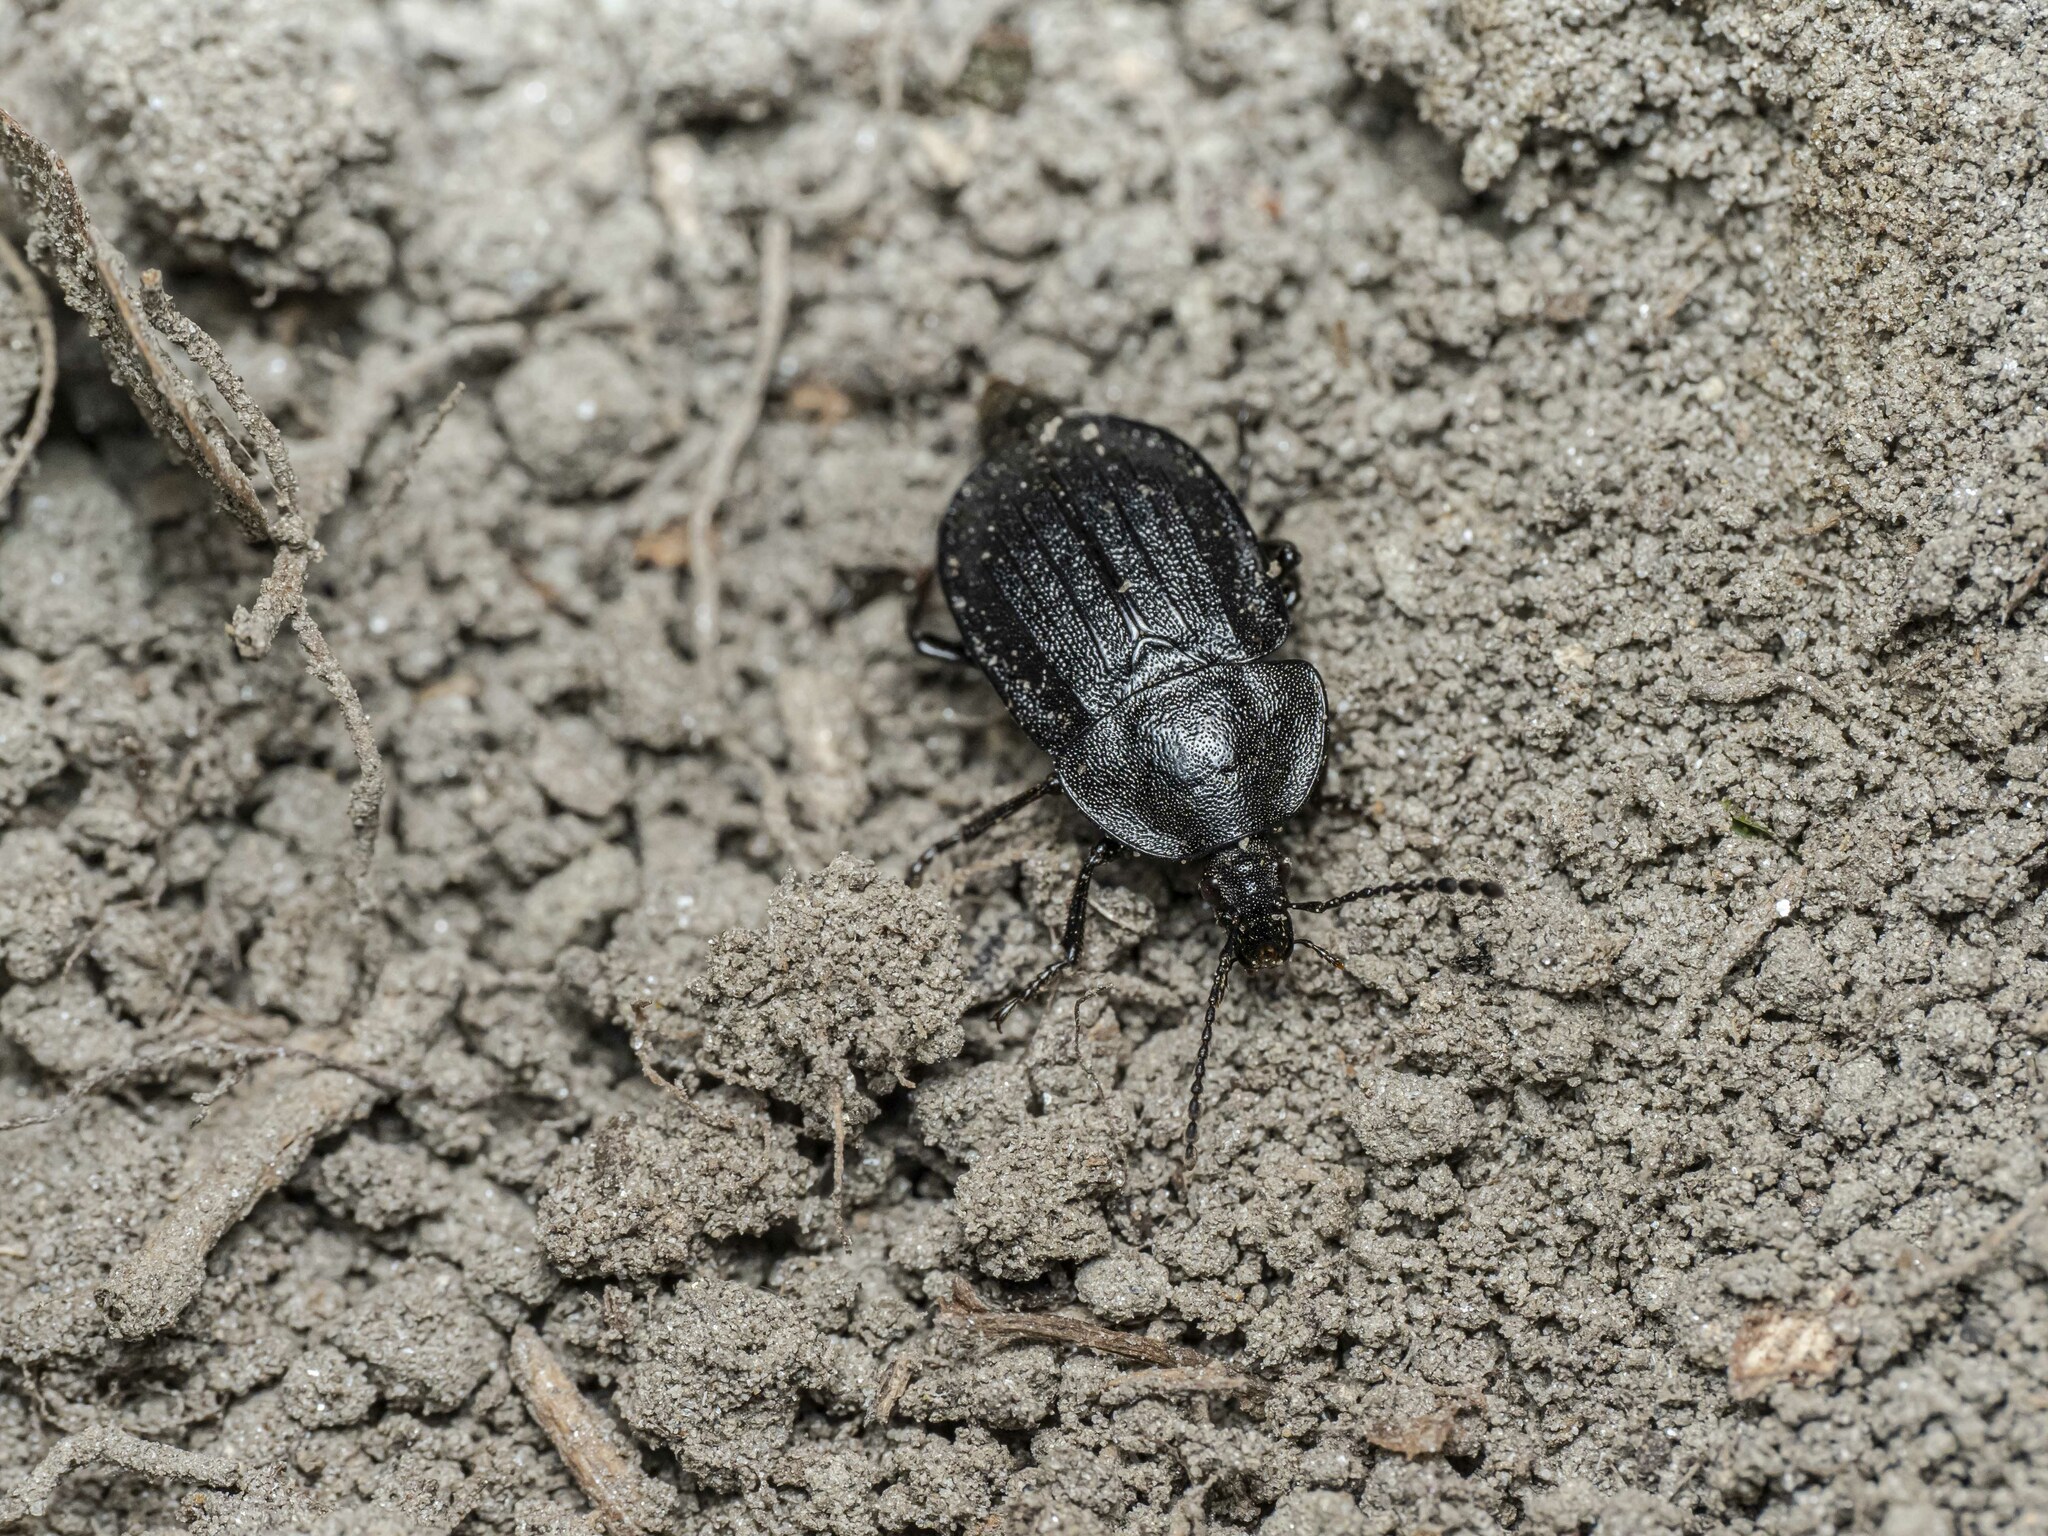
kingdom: Animalia
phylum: Arthropoda
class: Insecta
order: Coleoptera
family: Staphylinidae
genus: Silpha
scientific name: Silpha atrata
